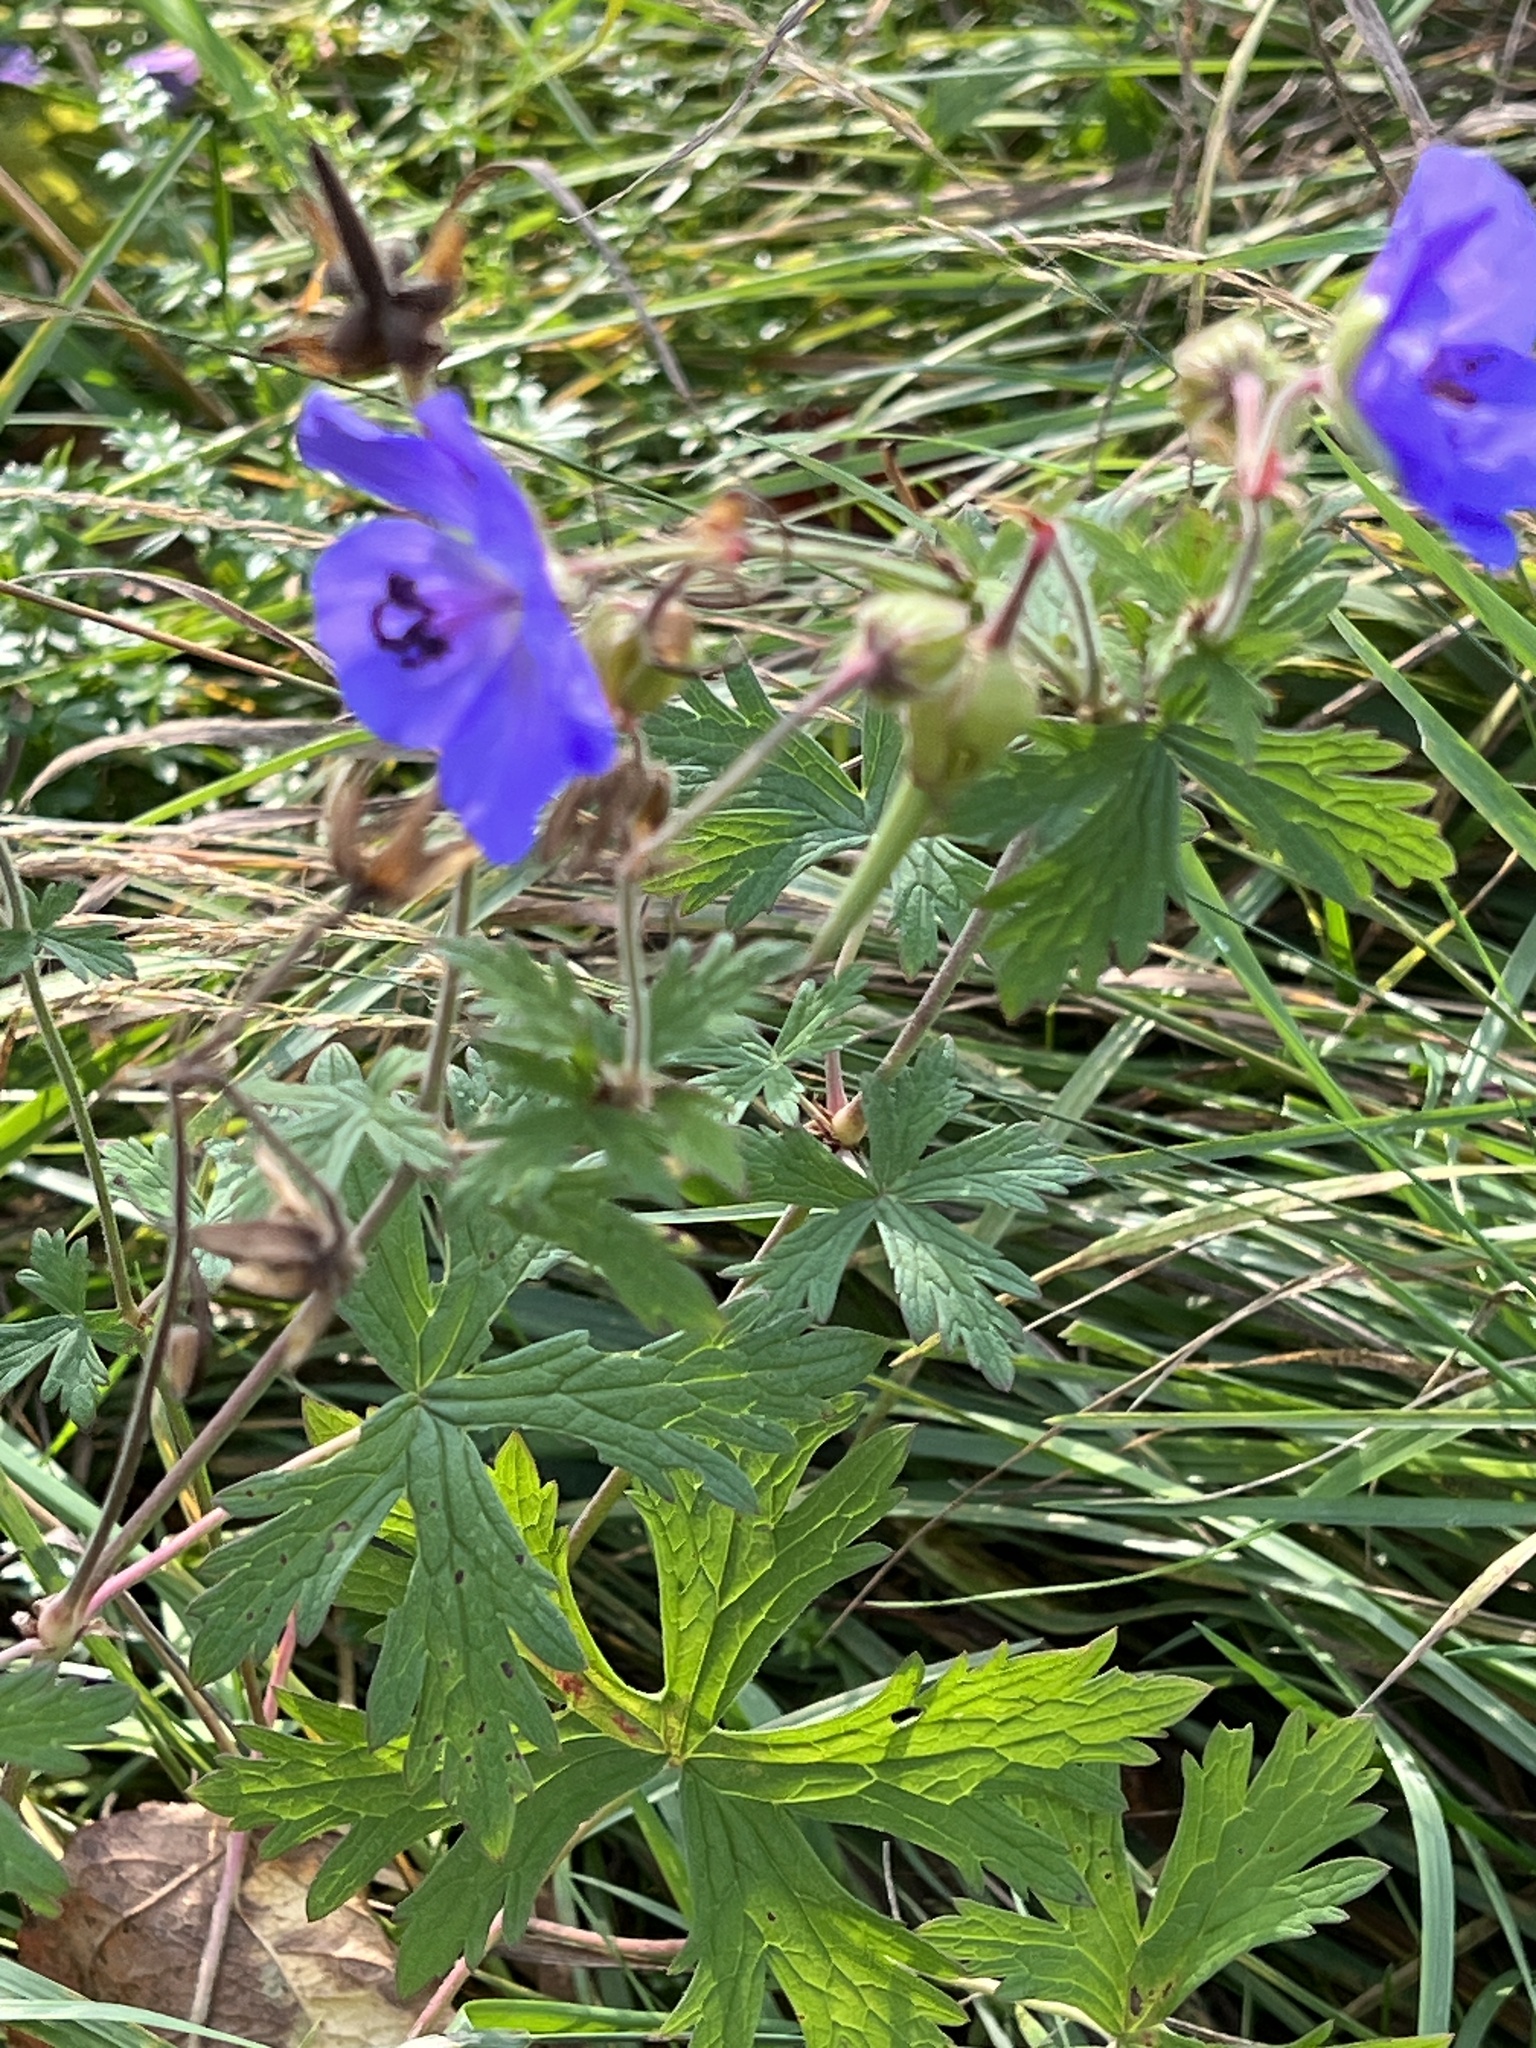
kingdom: Plantae
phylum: Tracheophyta
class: Magnoliopsida
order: Geraniales
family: Geraniaceae
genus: Geranium
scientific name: Geranium pratense
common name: Meadow crane's-bill
